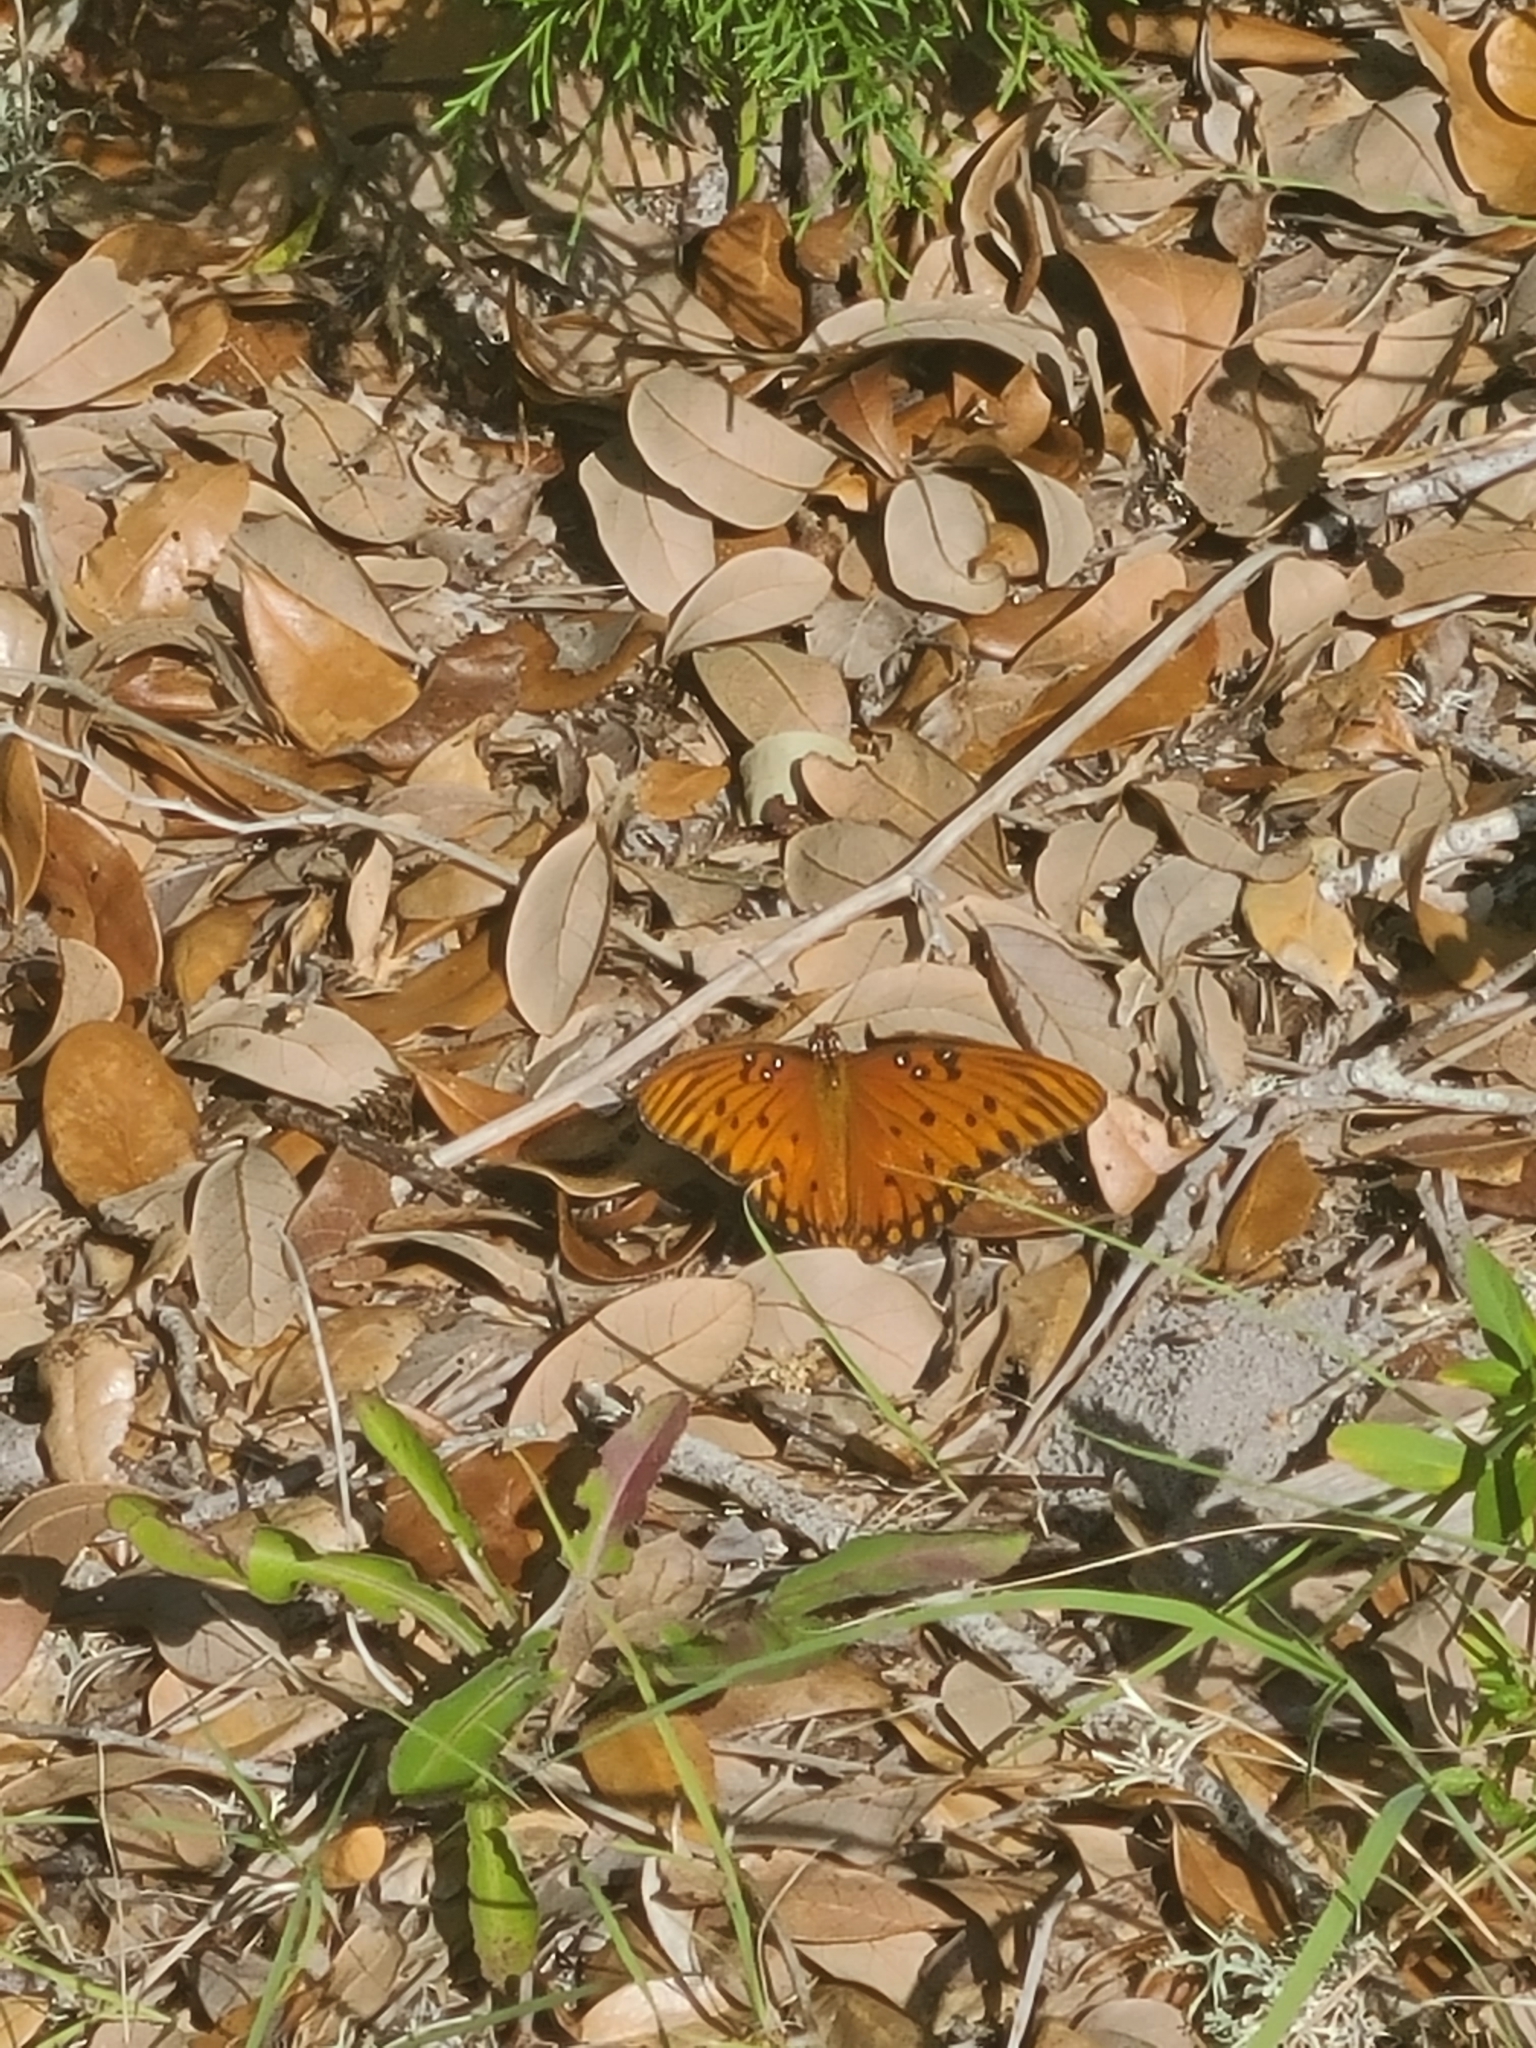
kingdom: Animalia
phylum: Arthropoda
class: Insecta
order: Lepidoptera
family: Nymphalidae
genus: Dione
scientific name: Dione vanillae
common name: Gulf fritillary
